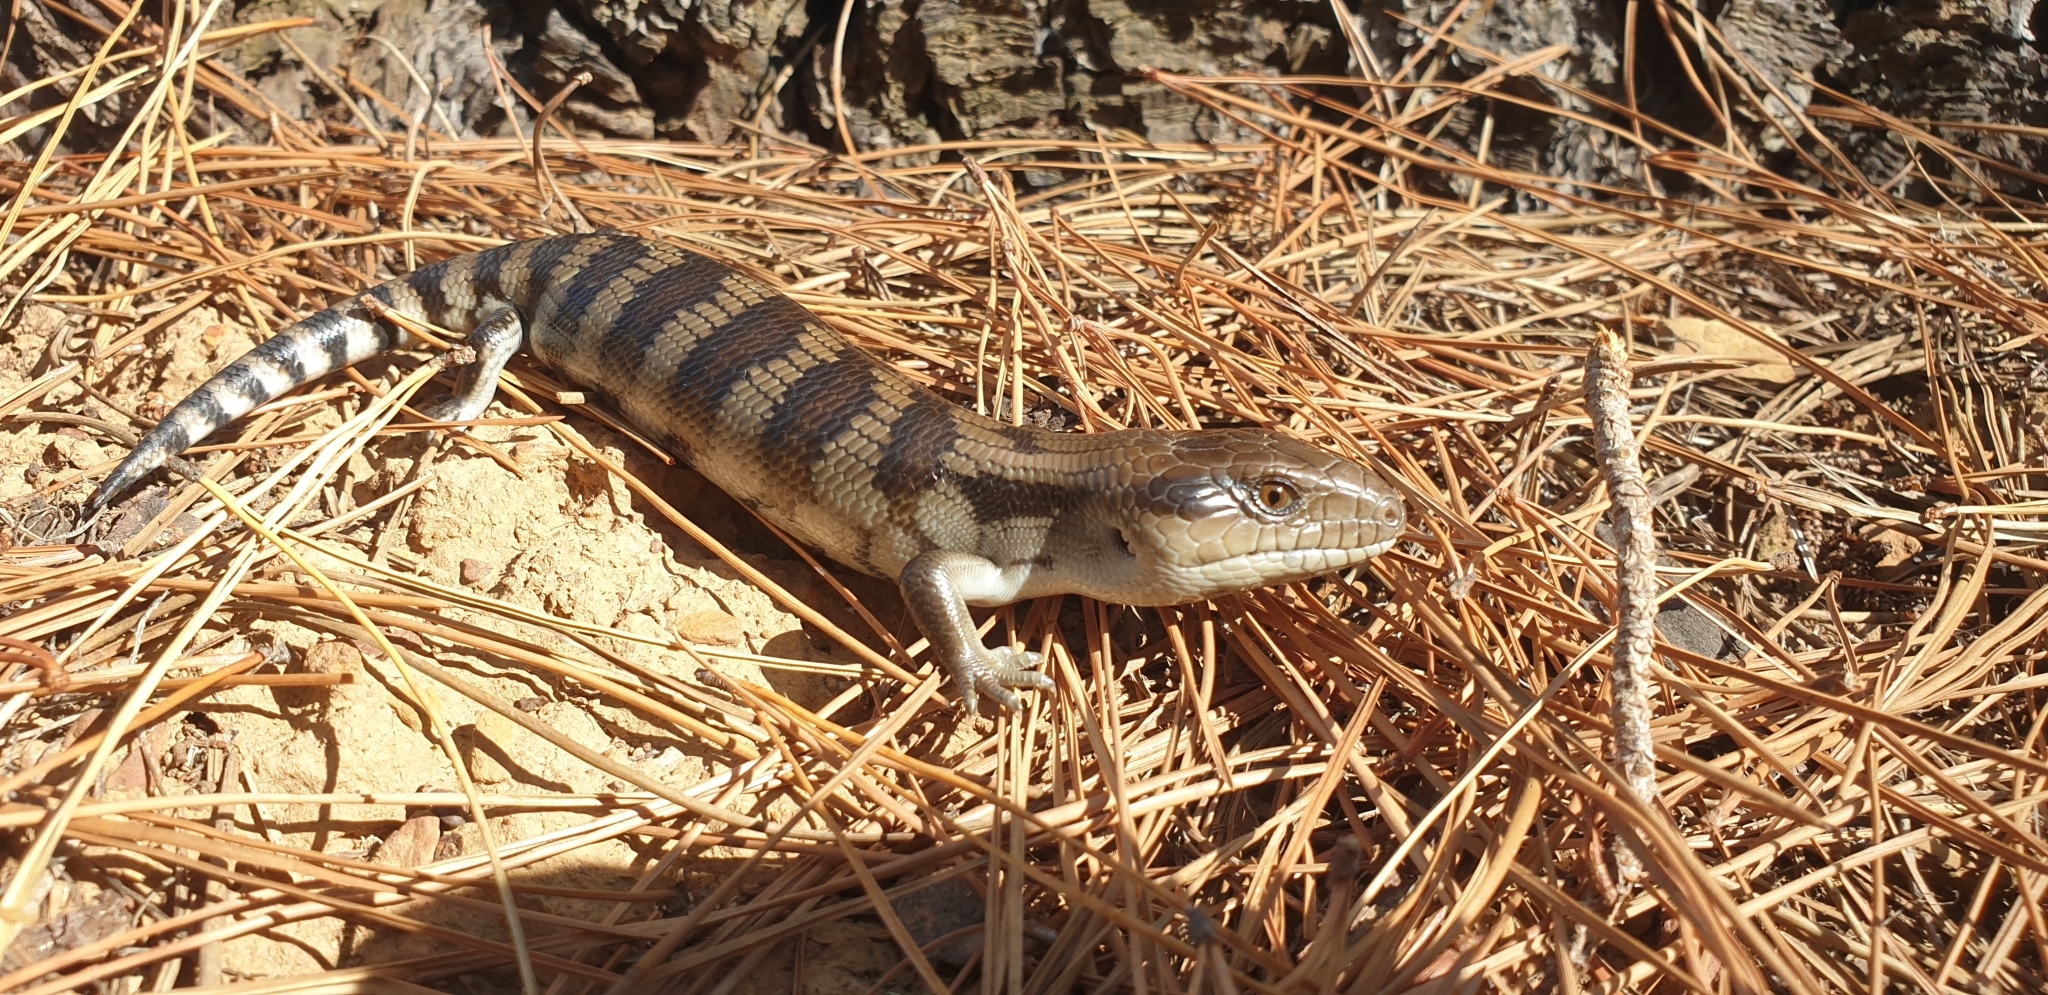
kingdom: Animalia
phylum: Chordata
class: Squamata
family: Scincidae
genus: Tiliqua
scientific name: Tiliqua scincoides
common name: Common bluetongue
